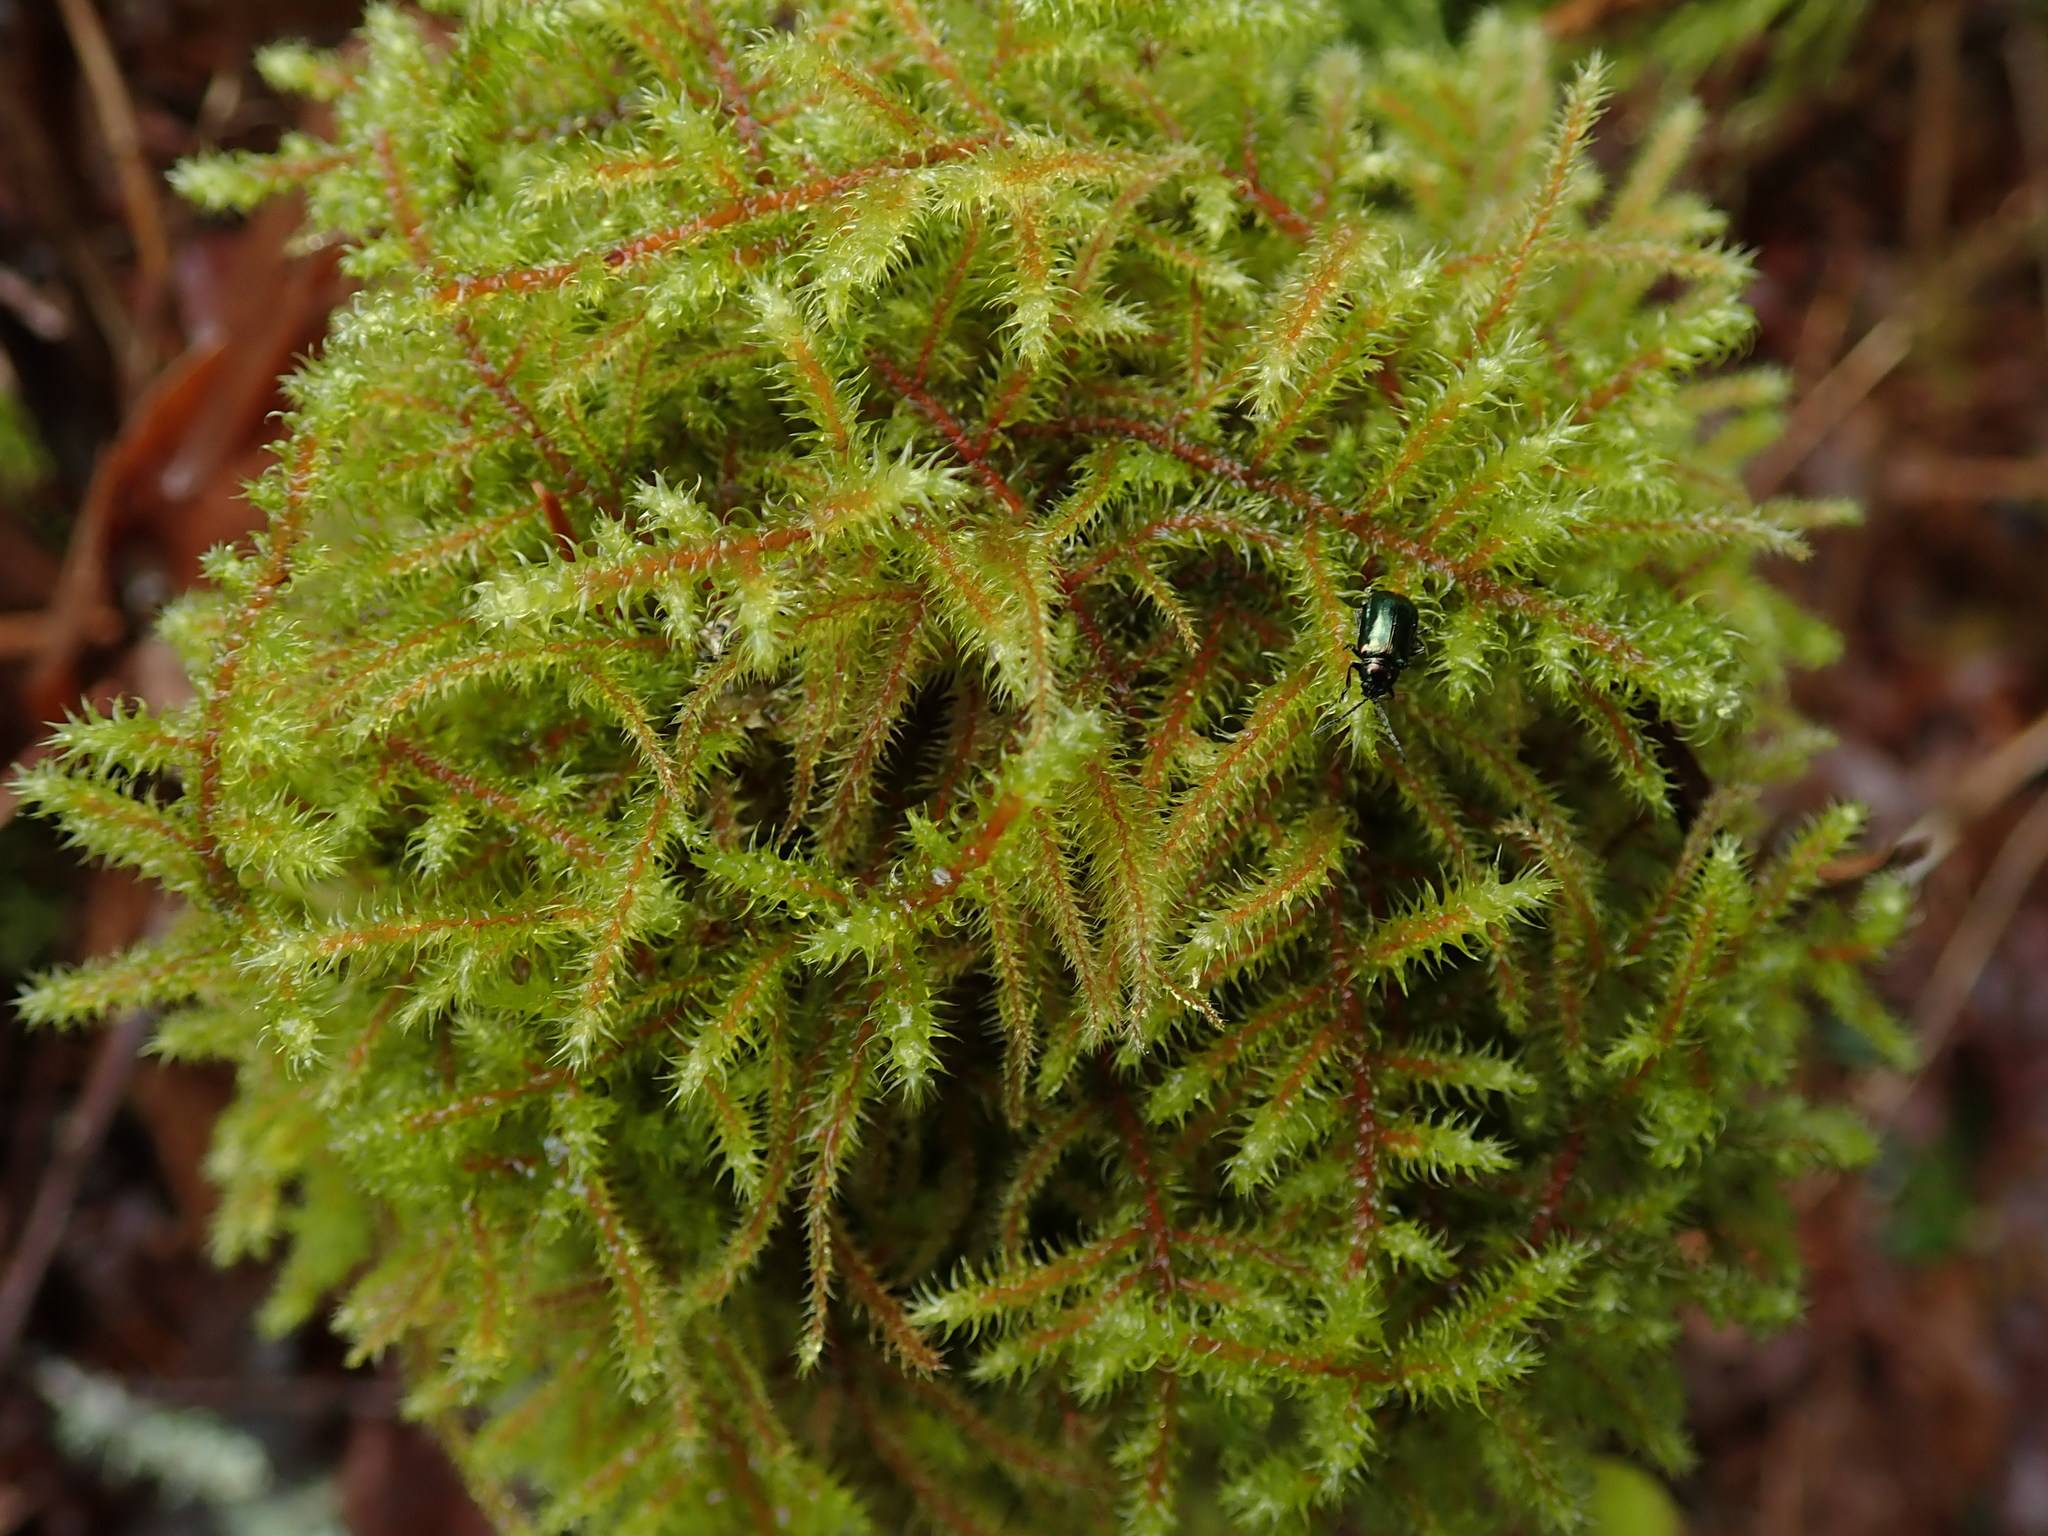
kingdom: Plantae
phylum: Bryophyta
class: Bryopsida
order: Hypnales
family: Hylocomiaceae
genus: Rhytidiadelphus
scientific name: Rhytidiadelphus loreus
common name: Lanky moss
